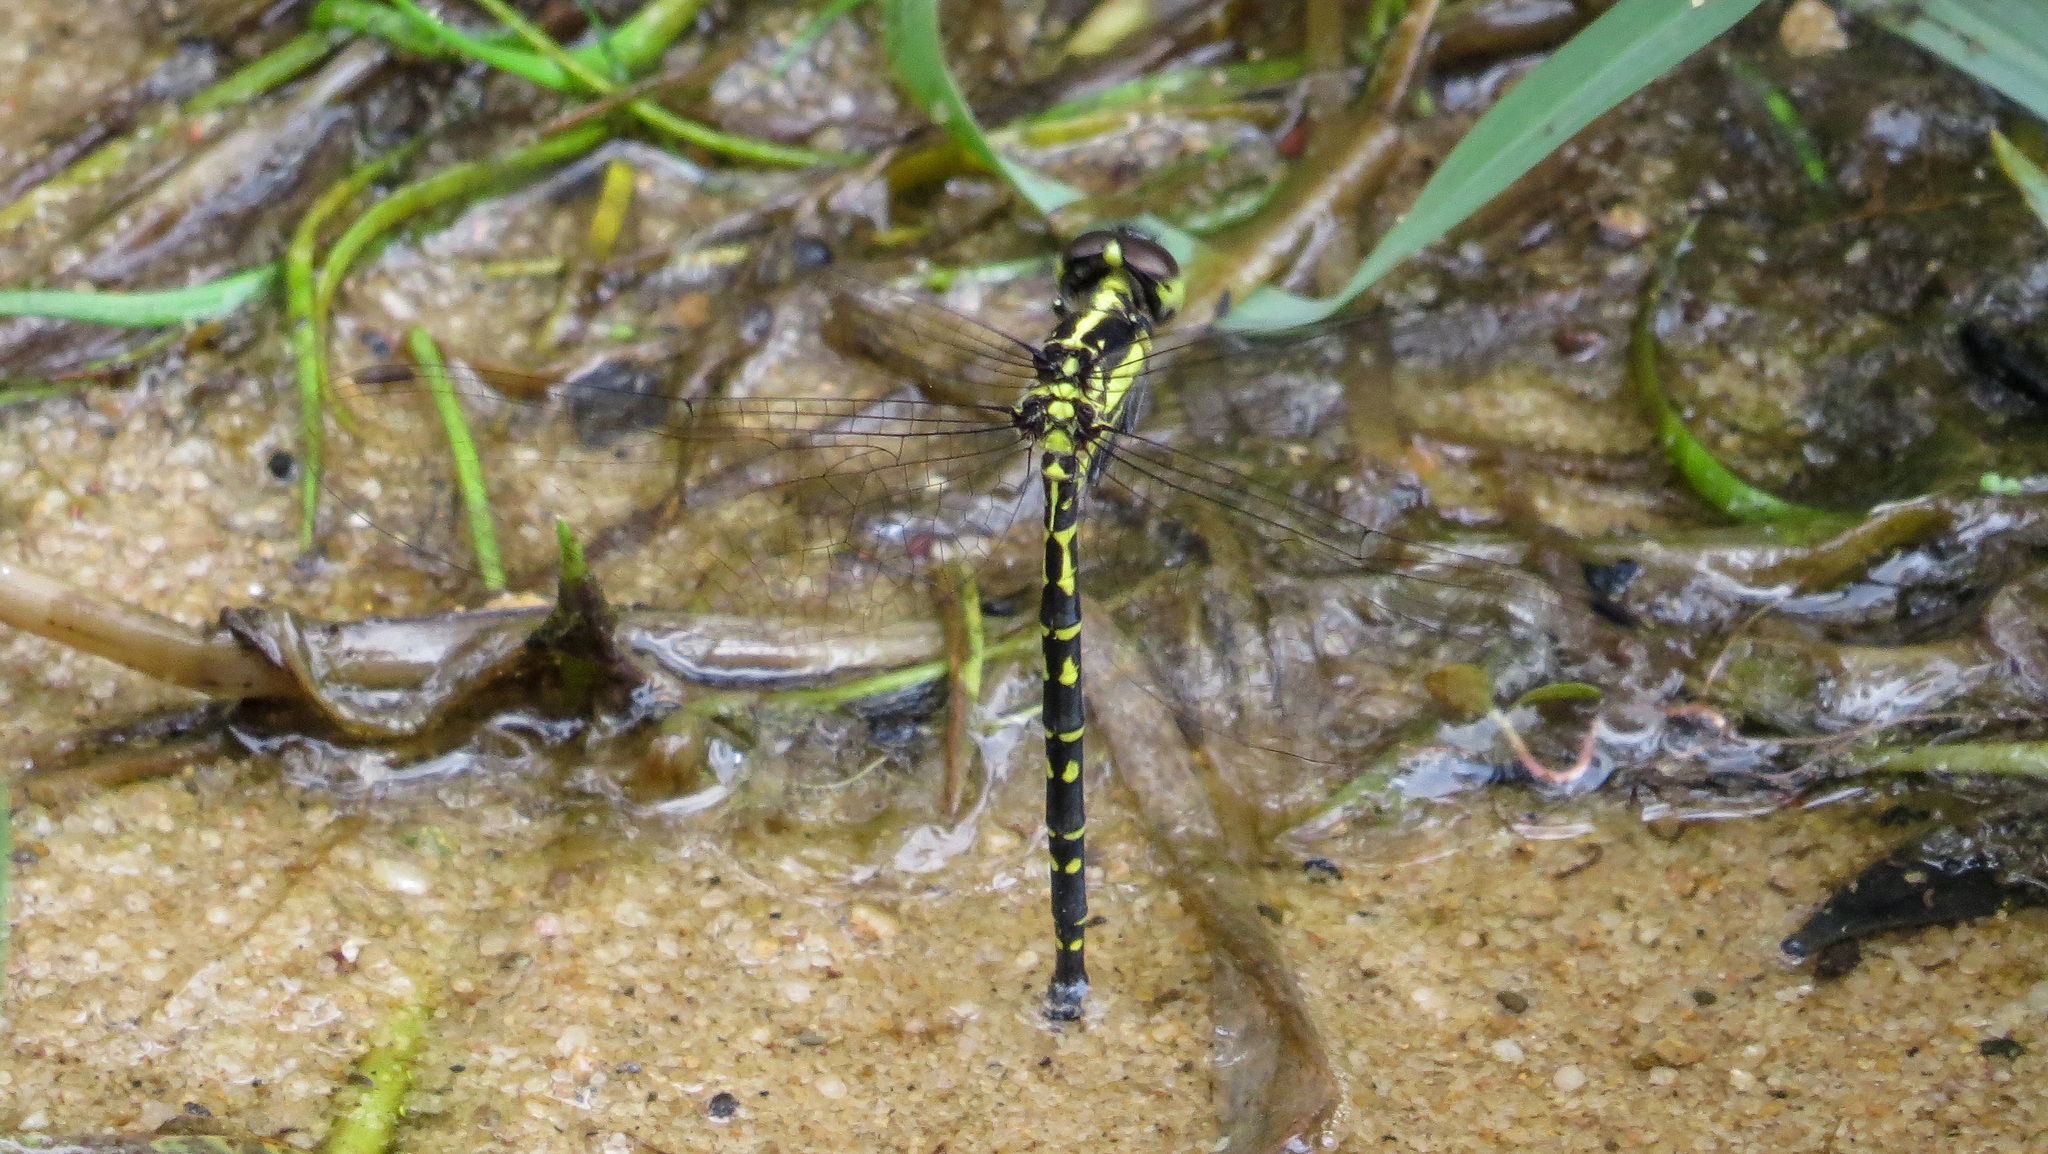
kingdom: Animalia
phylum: Arthropoda
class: Insecta
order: Odonata
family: Synthemistidae
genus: Choristhemis
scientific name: Choristhemis flavoterminata
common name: Yellow-tipped tigertail
